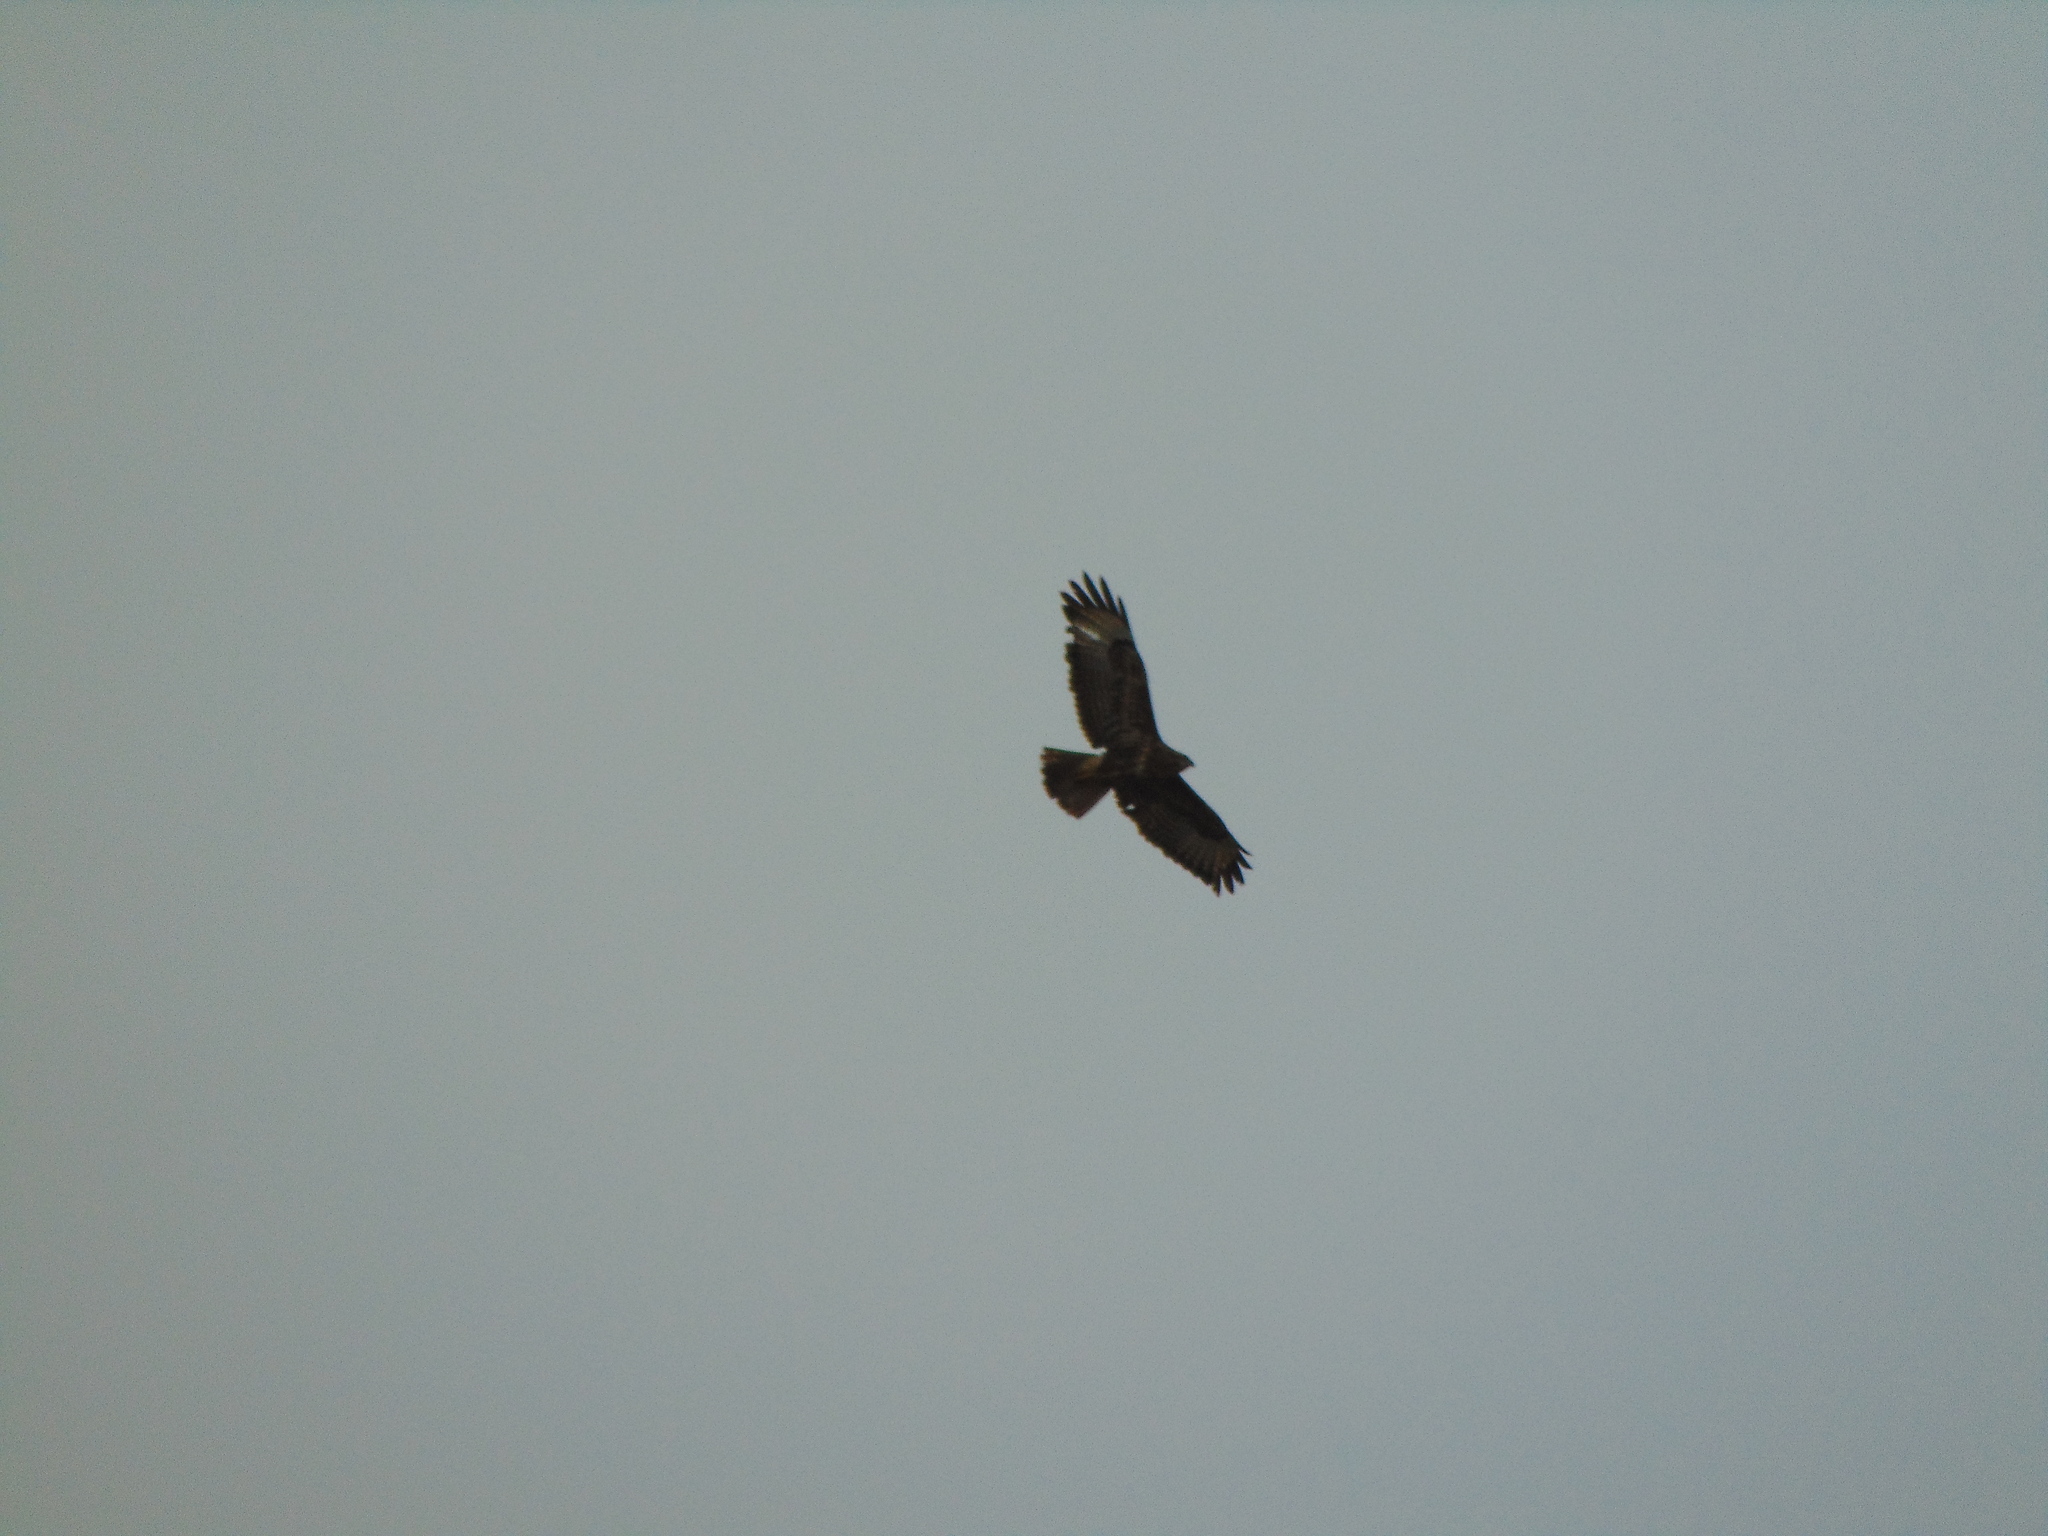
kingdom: Animalia
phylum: Chordata
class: Aves
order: Accipitriformes
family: Accipitridae
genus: Buteo
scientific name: Buteo buteo
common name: Common buzzard
